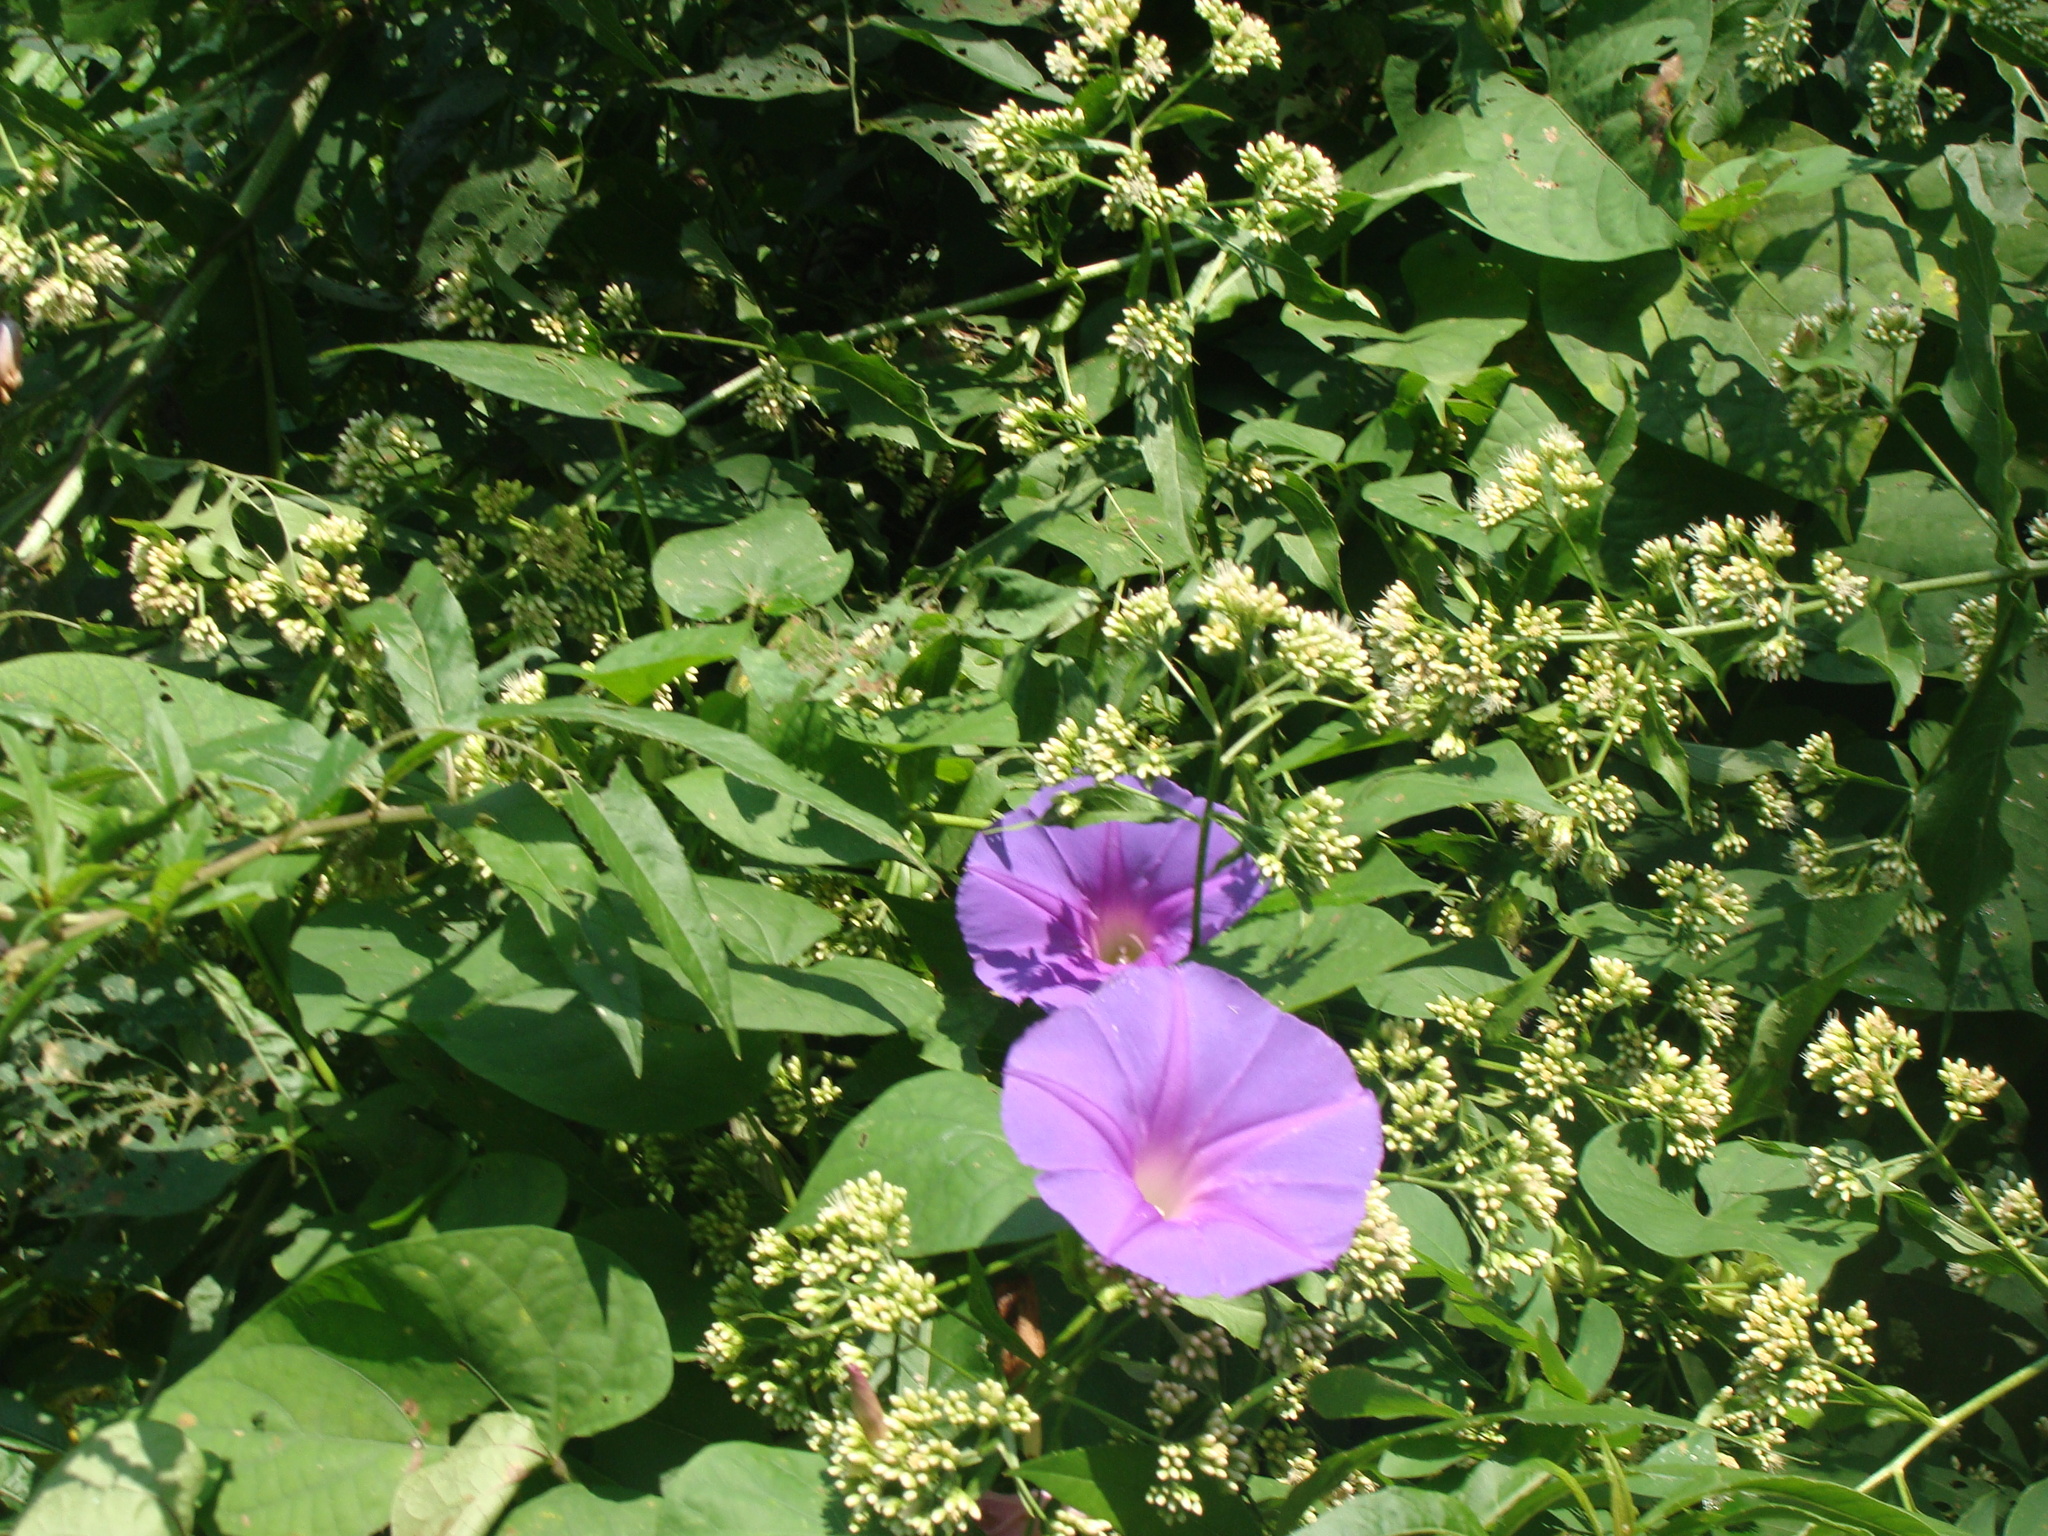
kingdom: Plantae
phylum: Tracheophyta
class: Magnoliopsida
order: Solanales
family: Convolvulaceae
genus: Ipomoea
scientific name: Ipomoea mitchelliae
